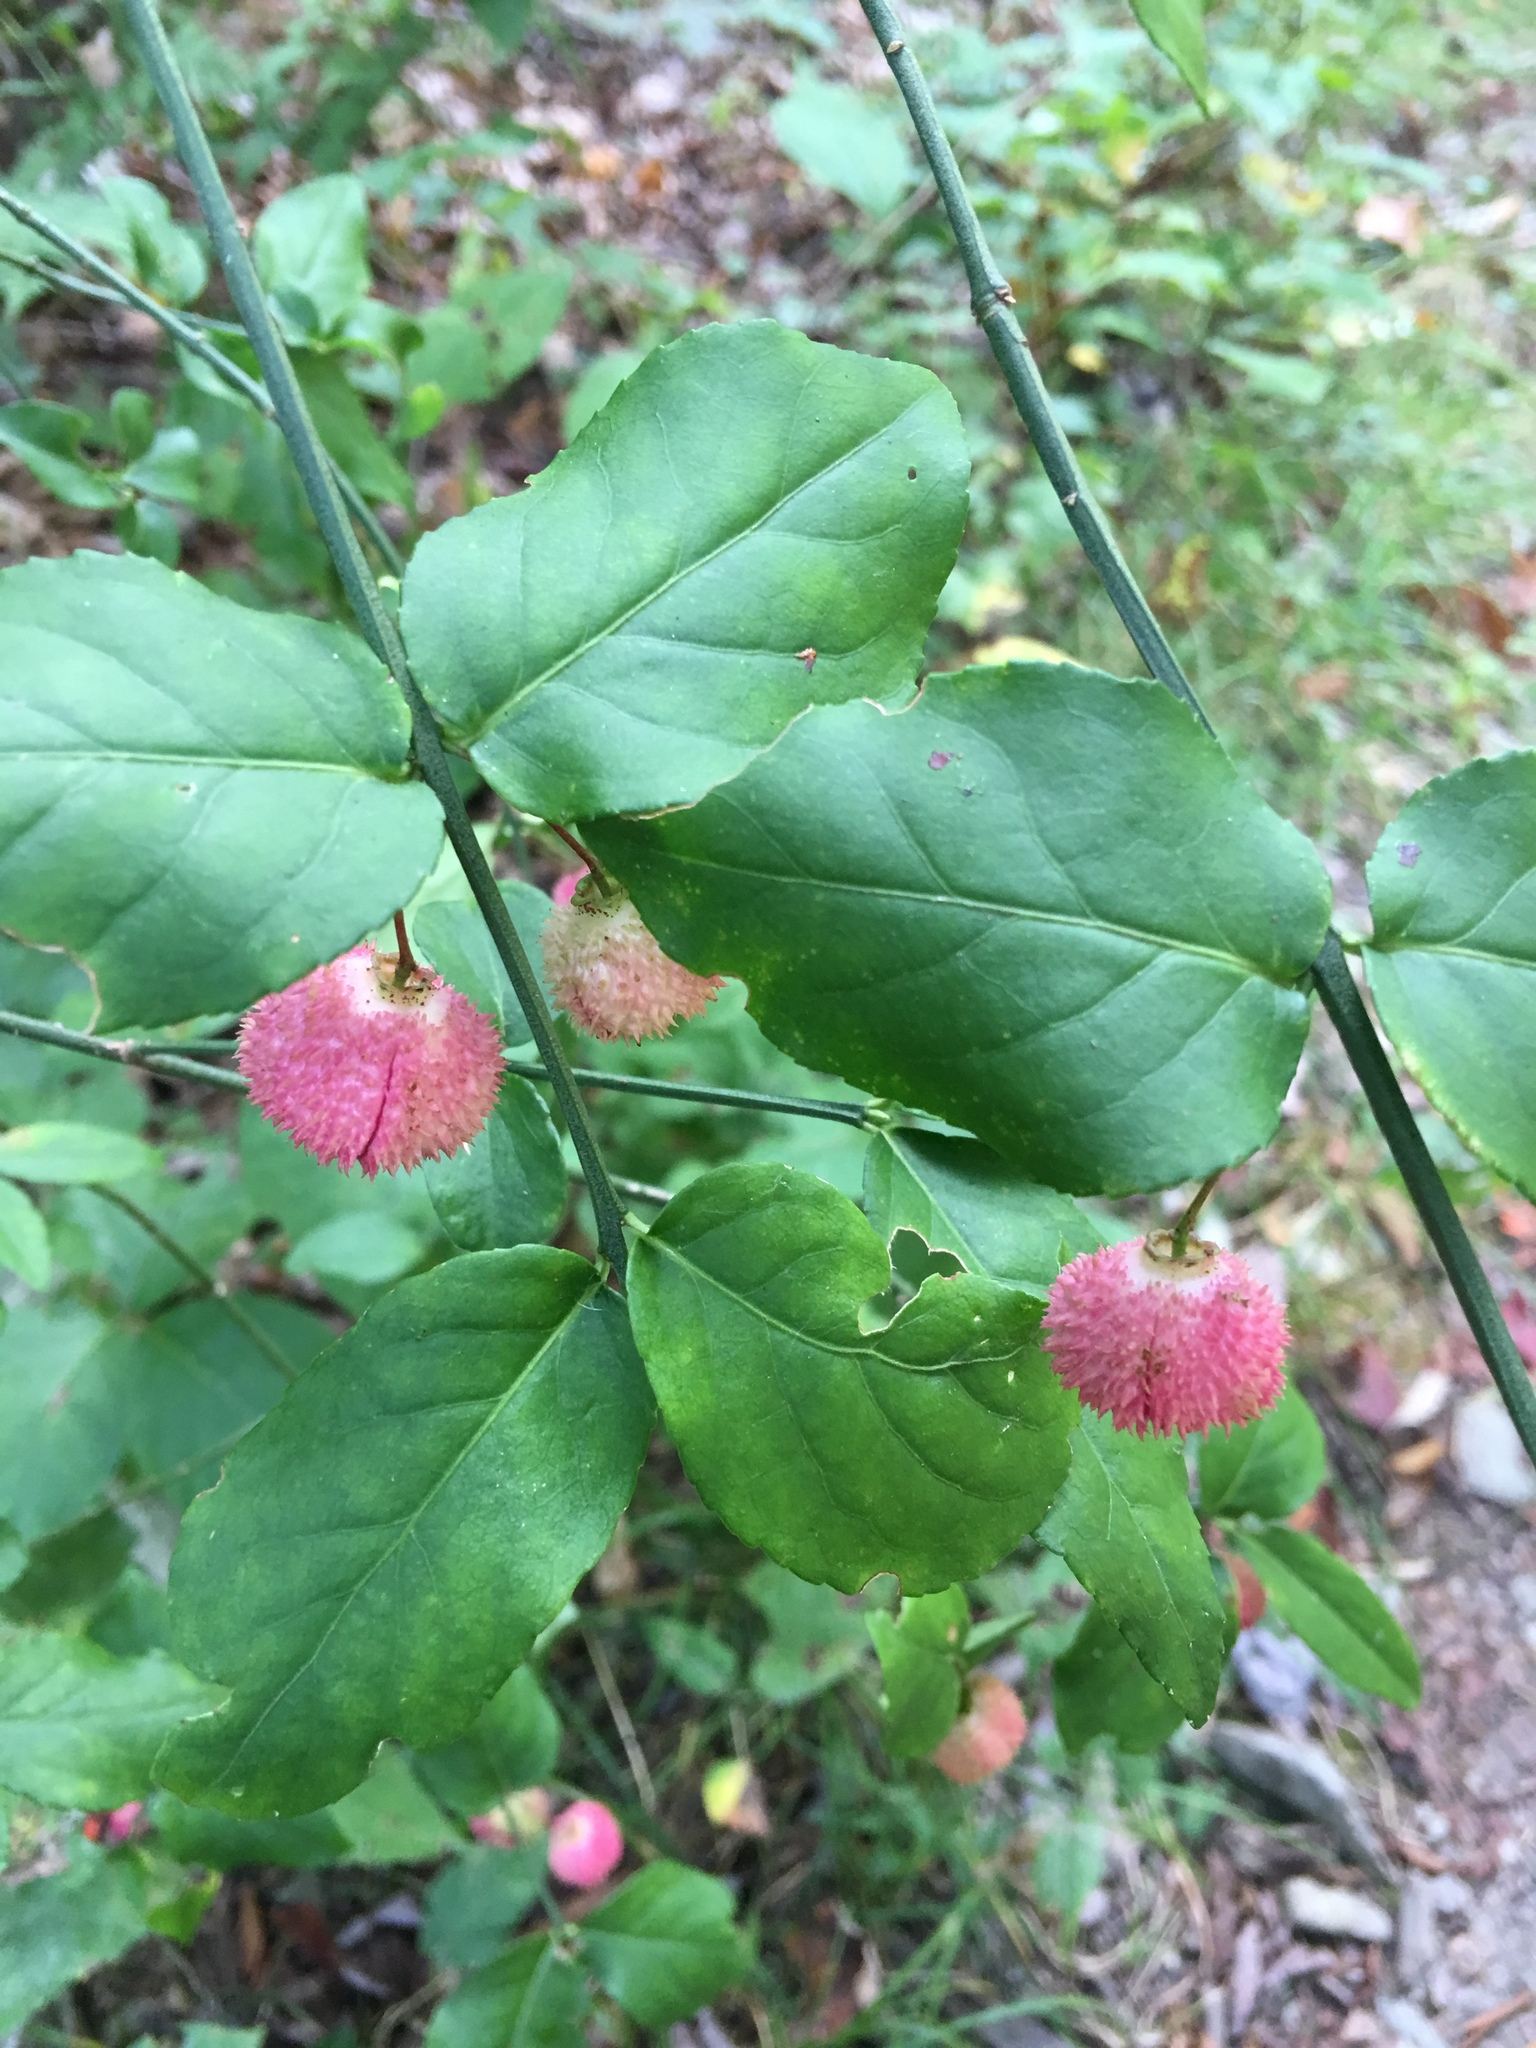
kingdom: Plantae
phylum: Tracheophyta
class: Magnoliopsida
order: Celastrales
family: Celastraceae
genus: Euonymus
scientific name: Euonymus americanus
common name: Bursting-heart
